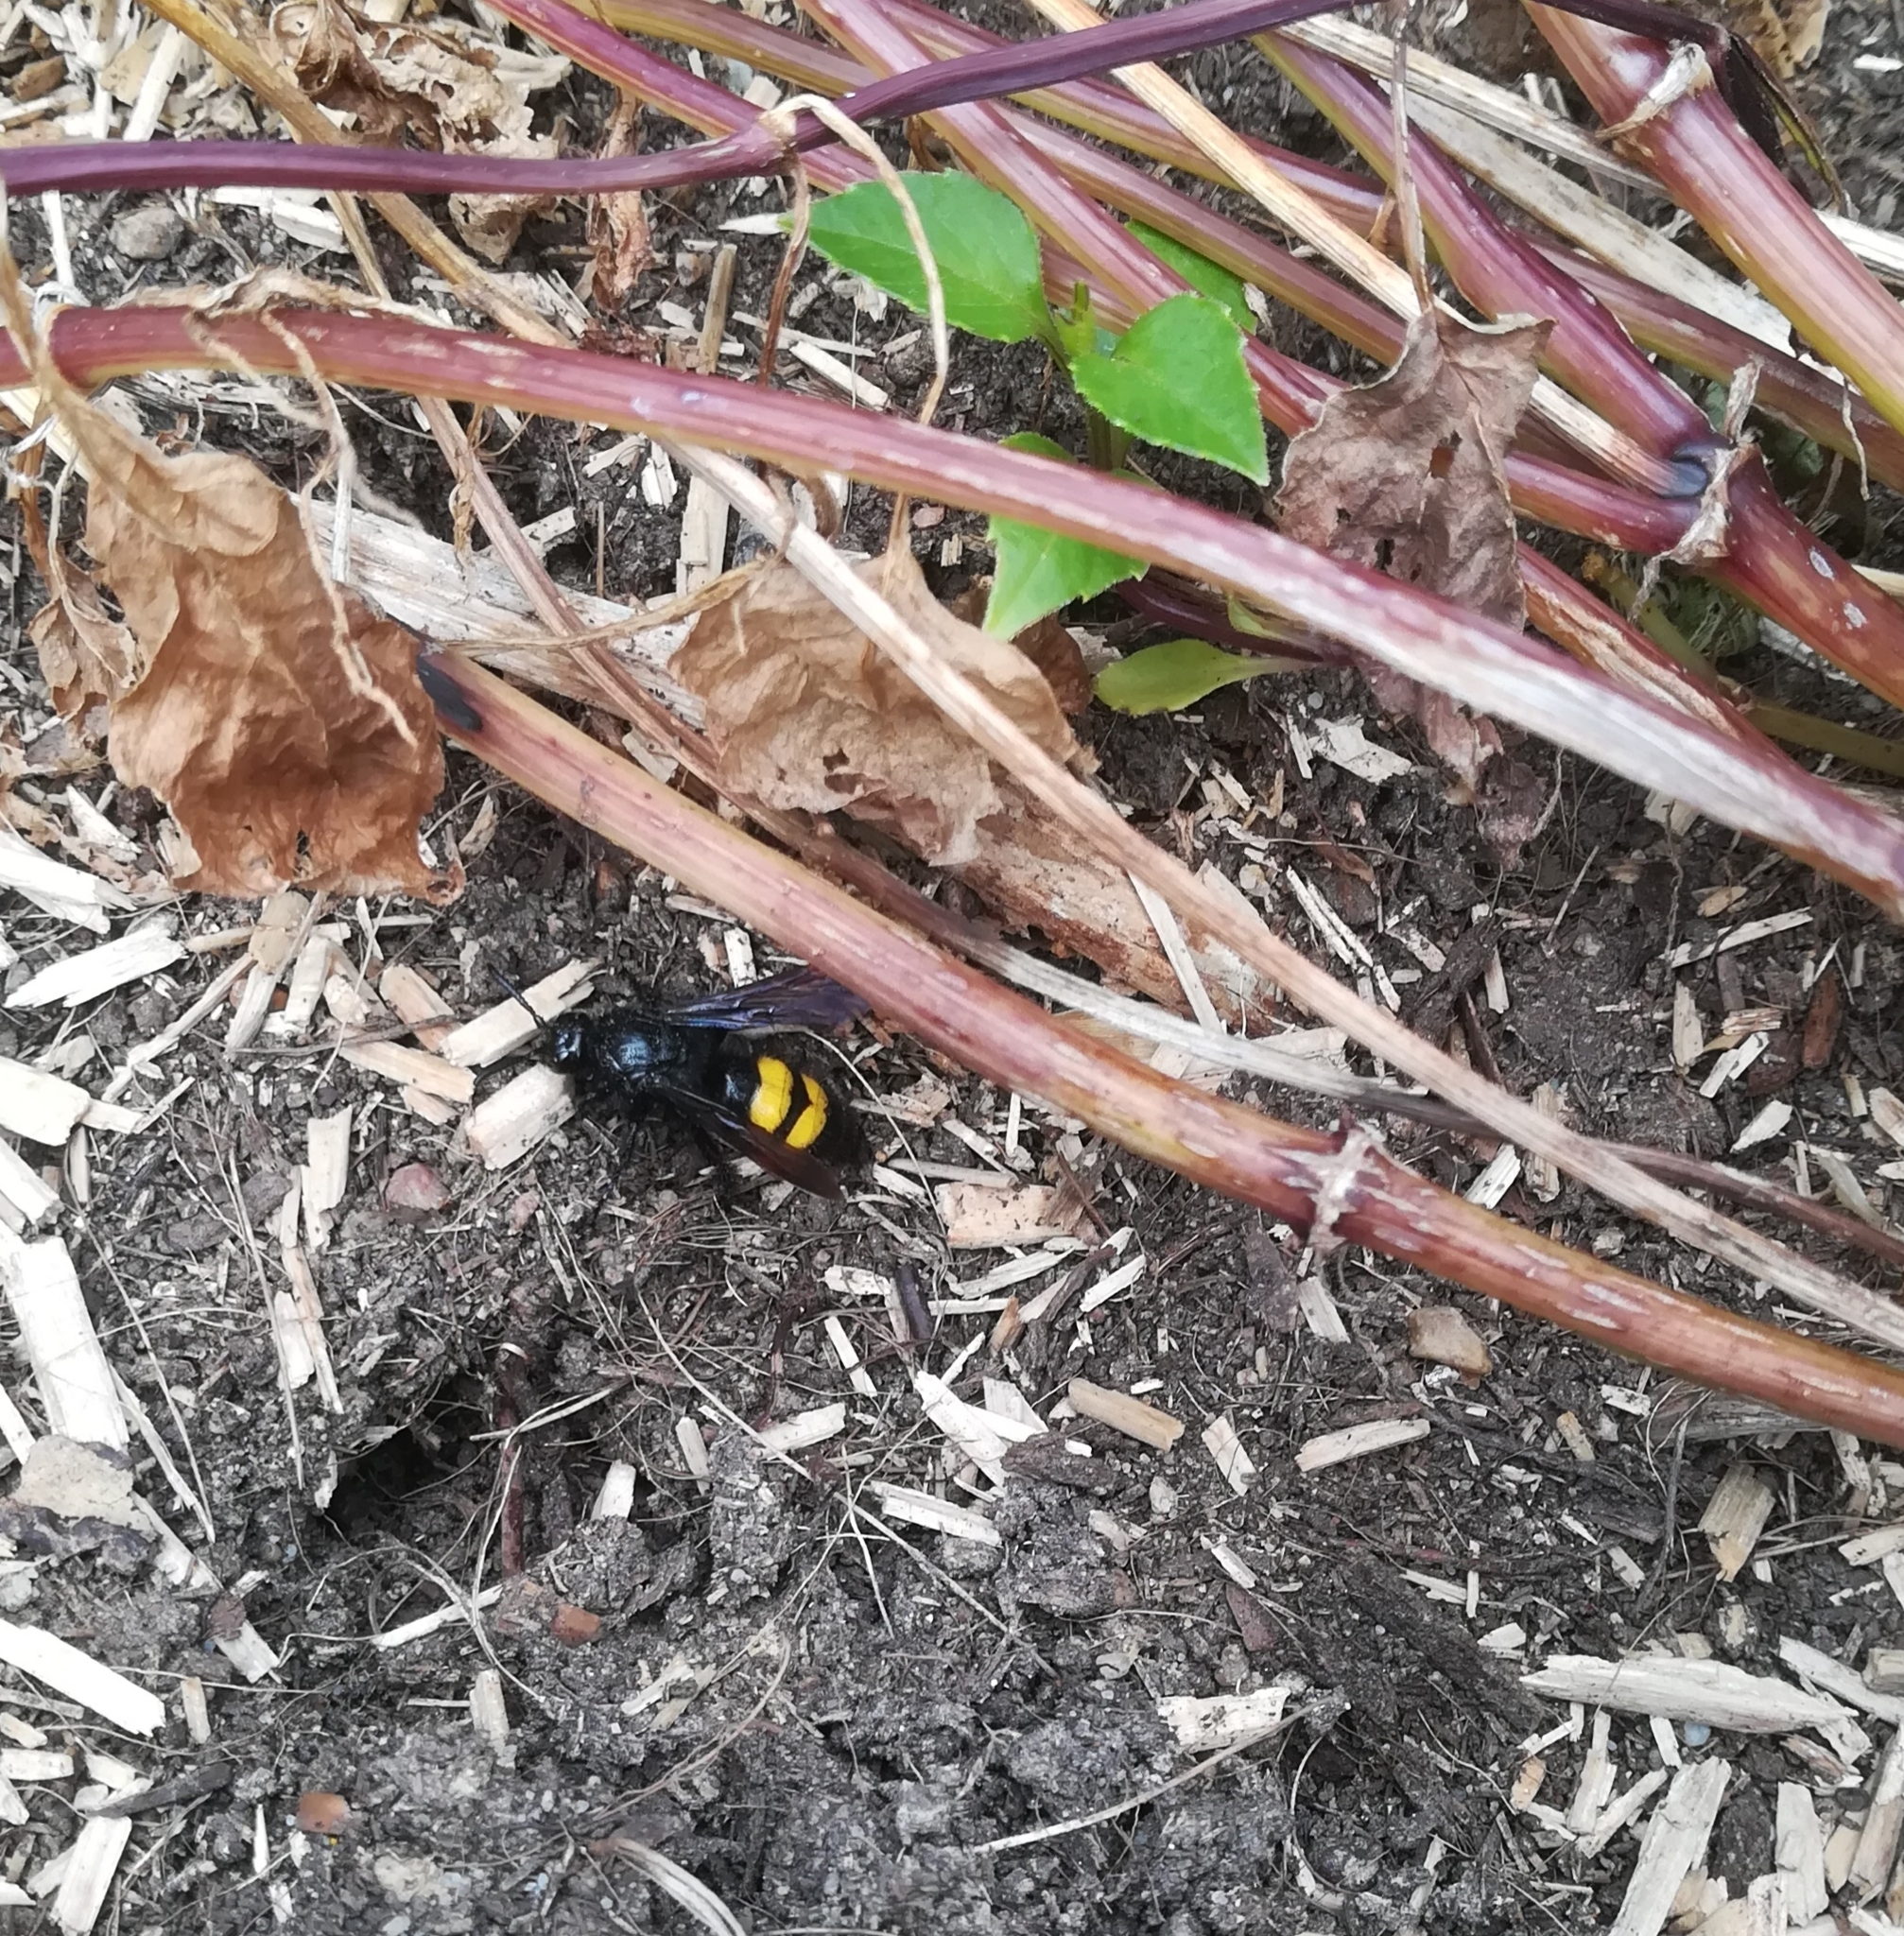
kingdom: Animalia
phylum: Arthropoda
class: Insecta
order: Hymenoptera
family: Scoliidae
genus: Scolia
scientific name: Scolia hirta
